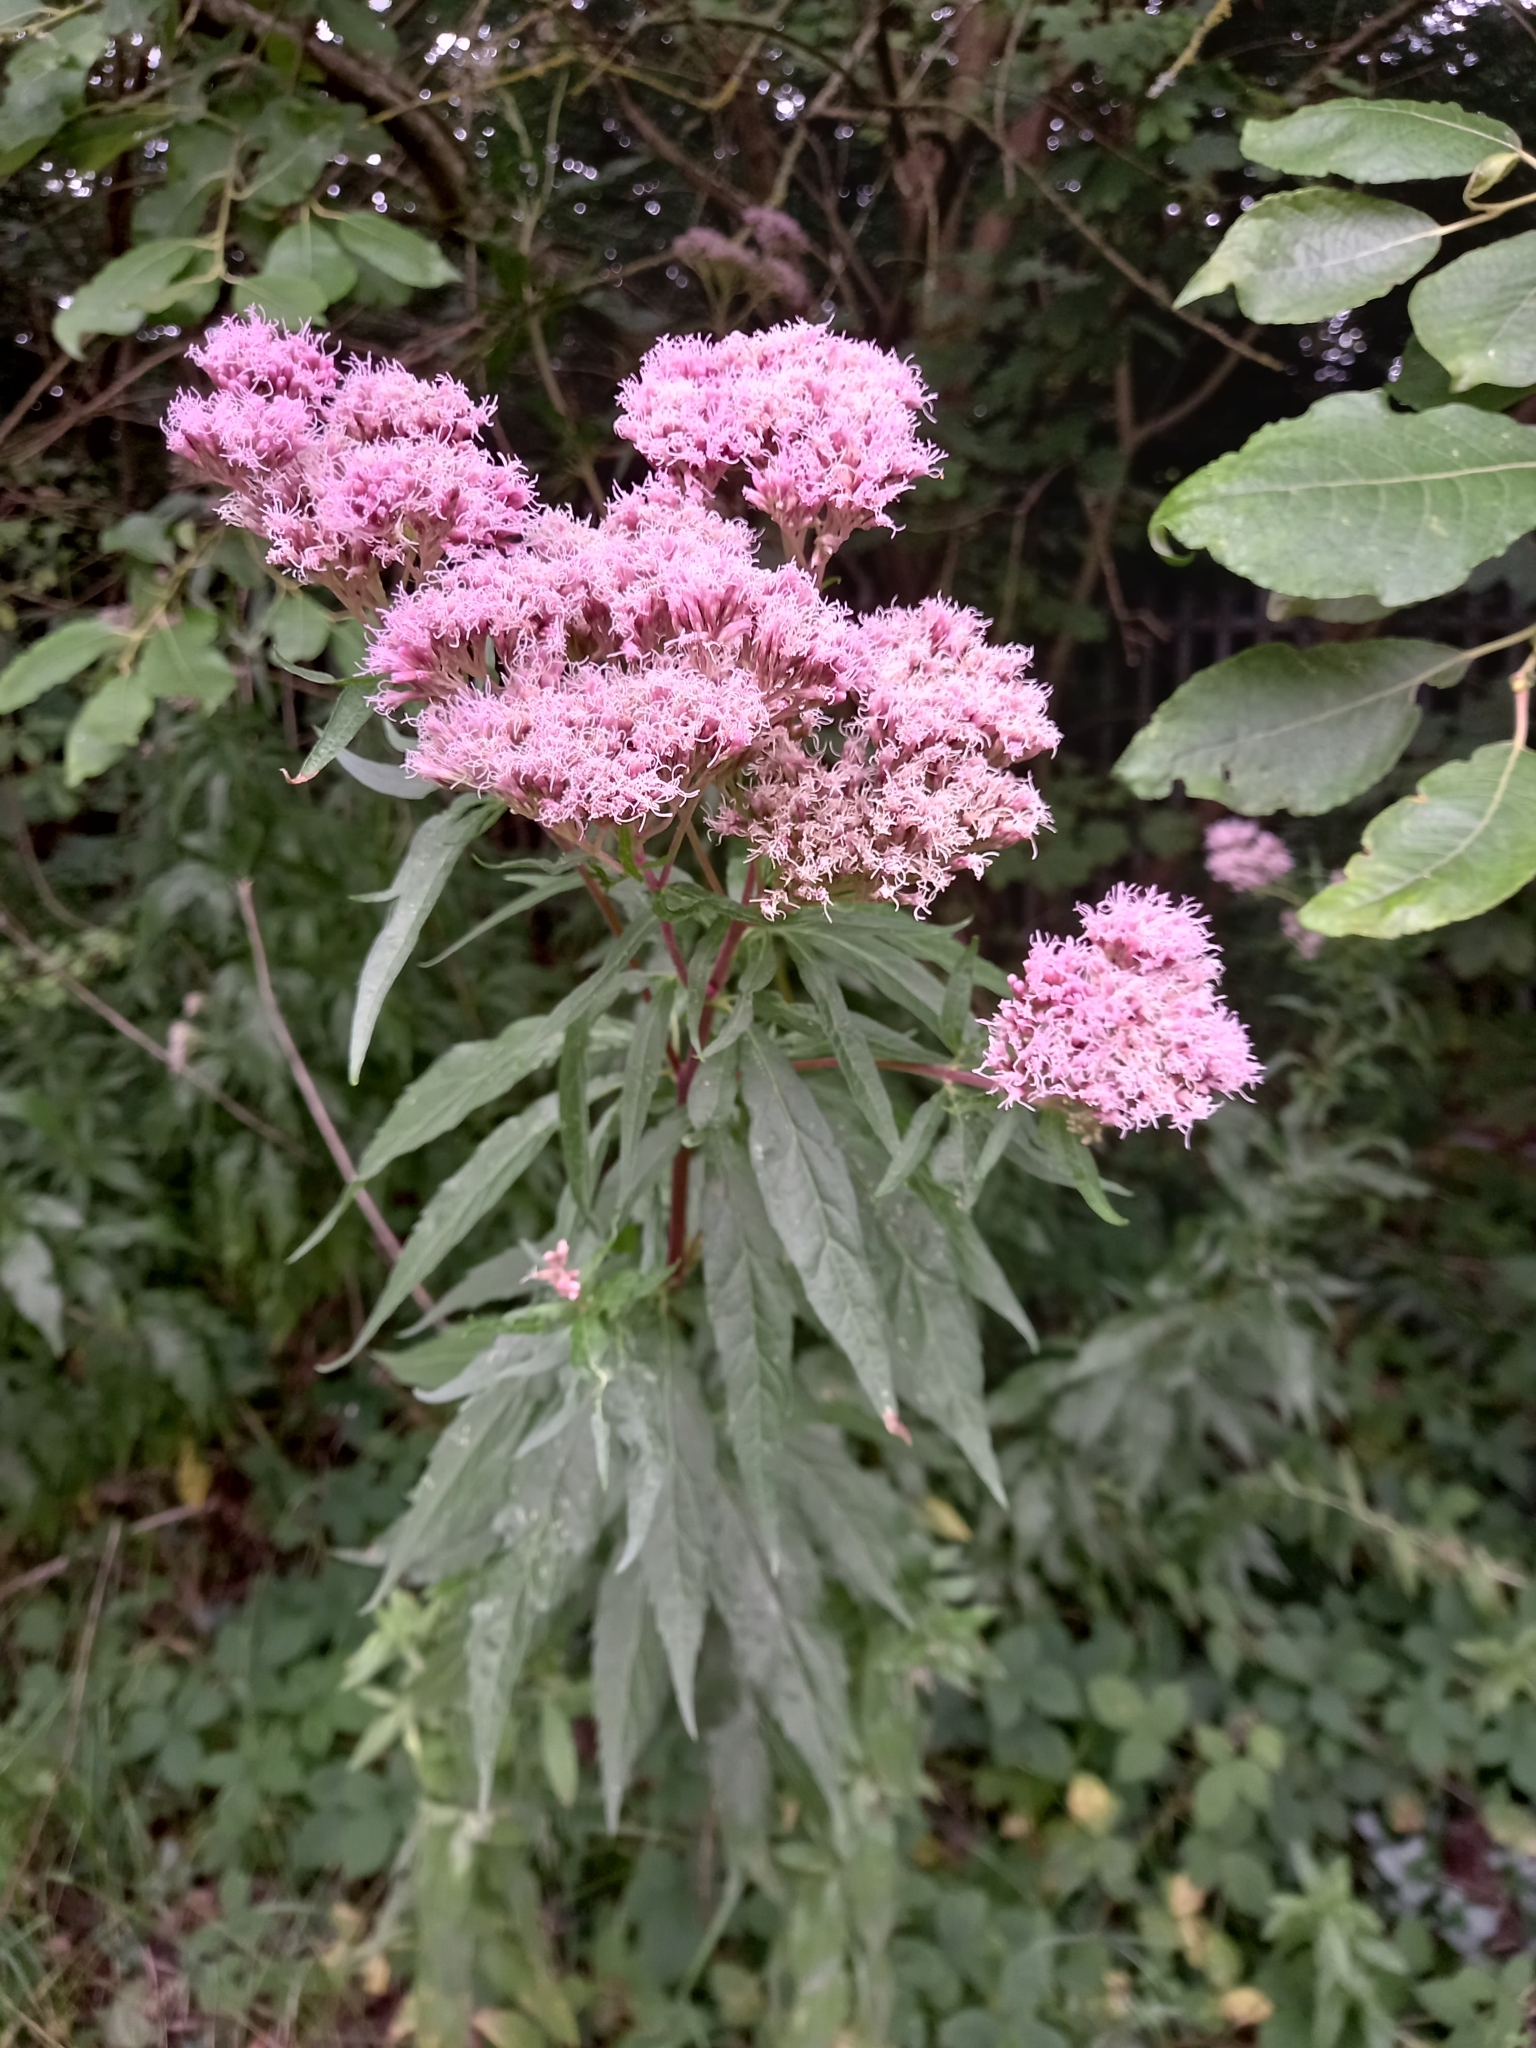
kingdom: Plantae
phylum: Tracheophyta
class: Magnoliopsida
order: Asterales
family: Asteraceae
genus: Eupatorium
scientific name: Eupatorium cannabinum
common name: Hemp-agrimony
